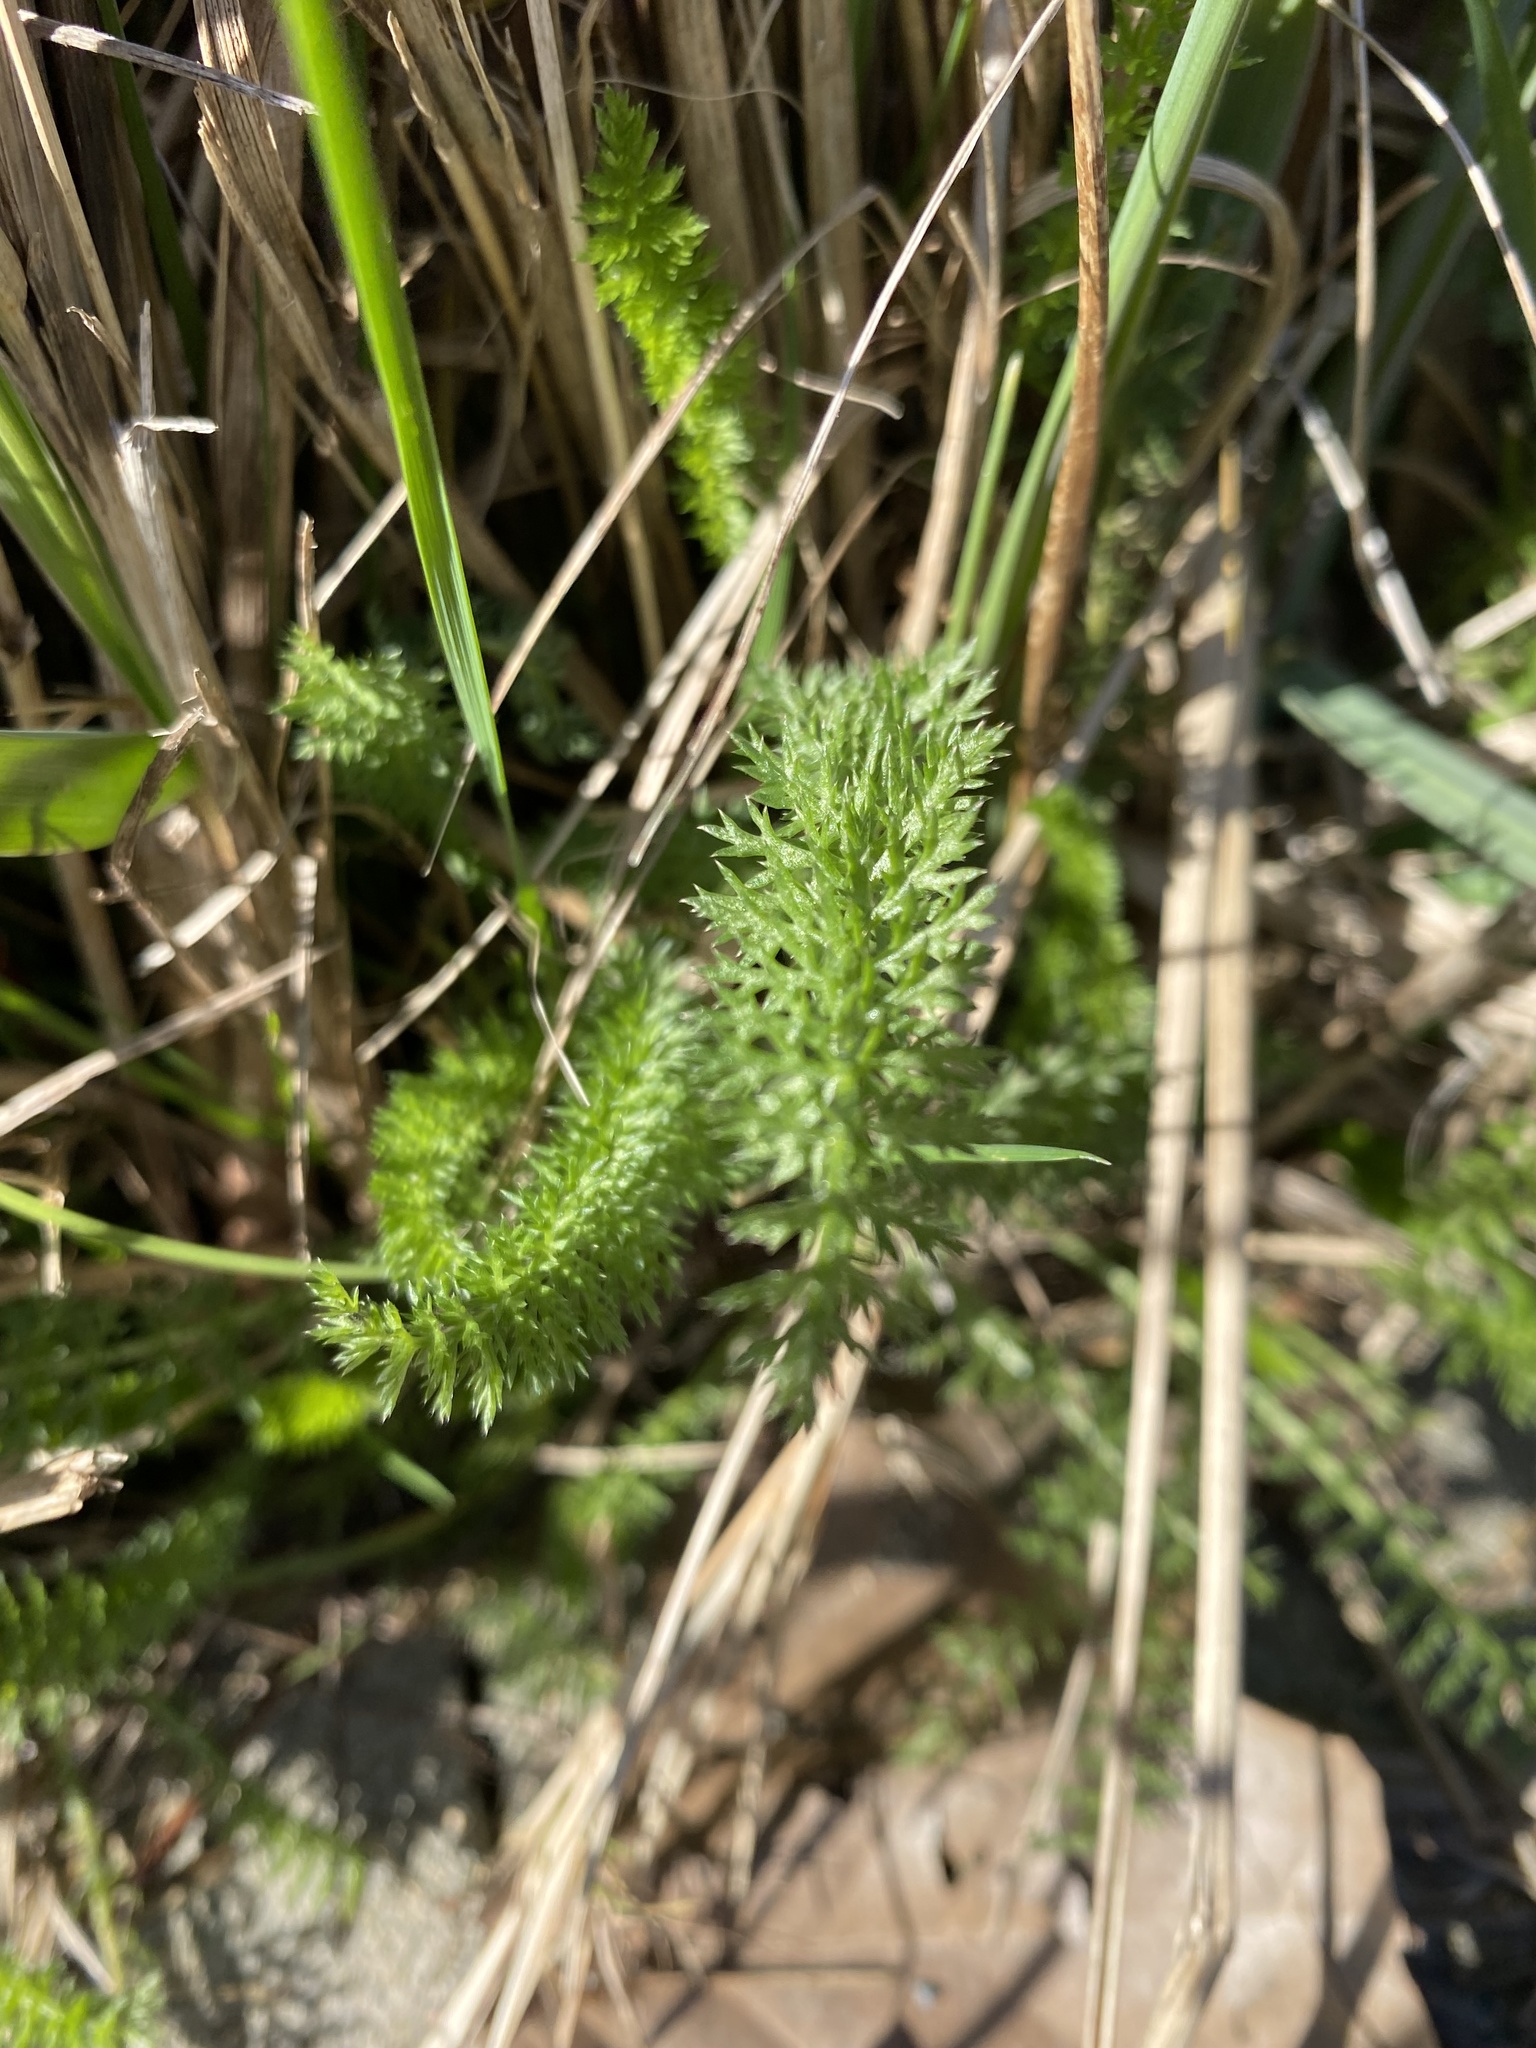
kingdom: Plantae
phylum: Tracheophyta
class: Magnoliopsida
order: Asterales
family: Asteraceae
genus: Achillea
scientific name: Achillea millefolium
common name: Yarrow
